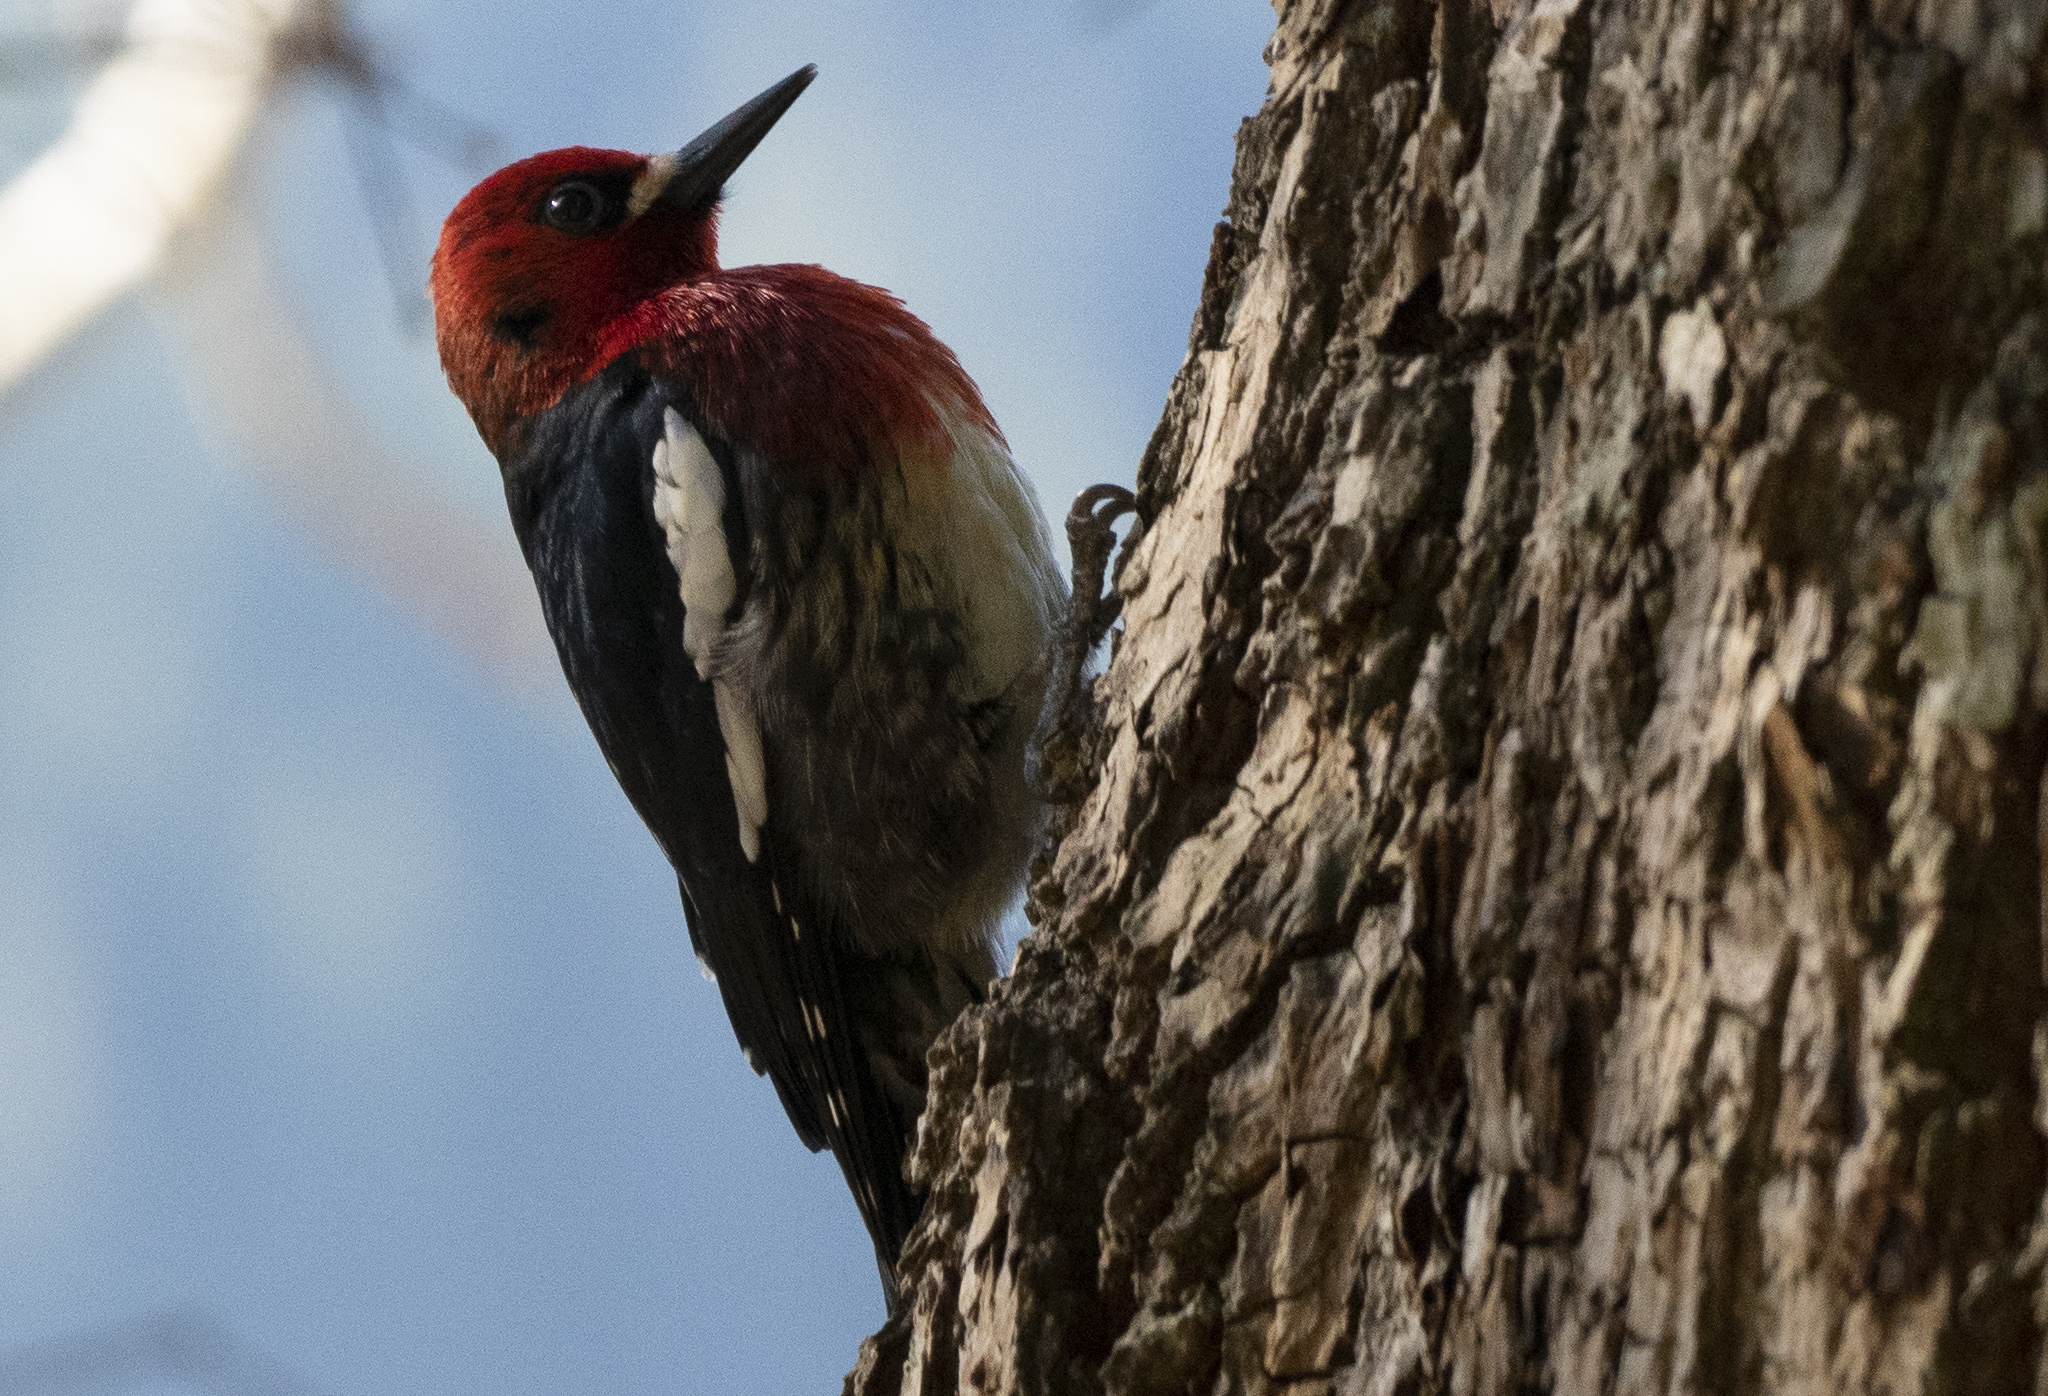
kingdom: Animalia
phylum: Chordata
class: Aves
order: Piciformes
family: Picidae
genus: Sphyrapicus
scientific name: Sphyrapicus ruber
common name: Red-breasted sapsucker
